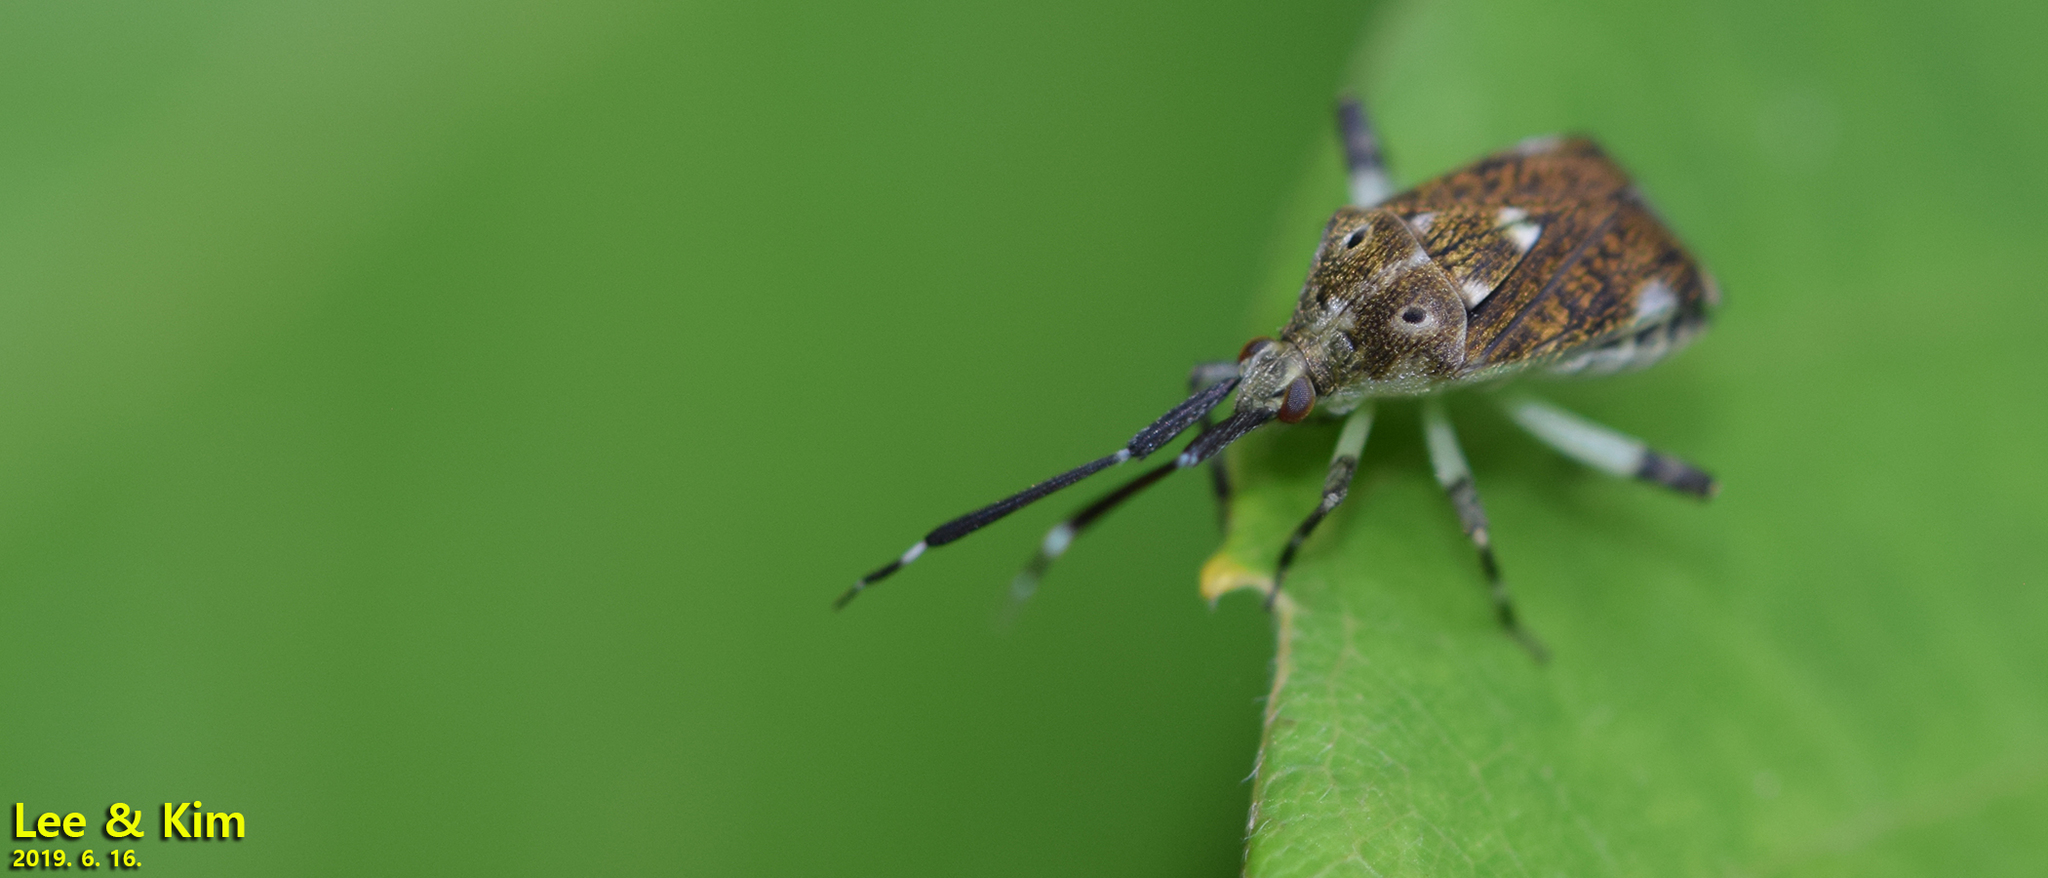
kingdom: Animalia
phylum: Arthropoda
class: Insecta
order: Hemiptera
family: Miridae
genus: Eurystylus
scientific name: Eurystylus coelestialium
